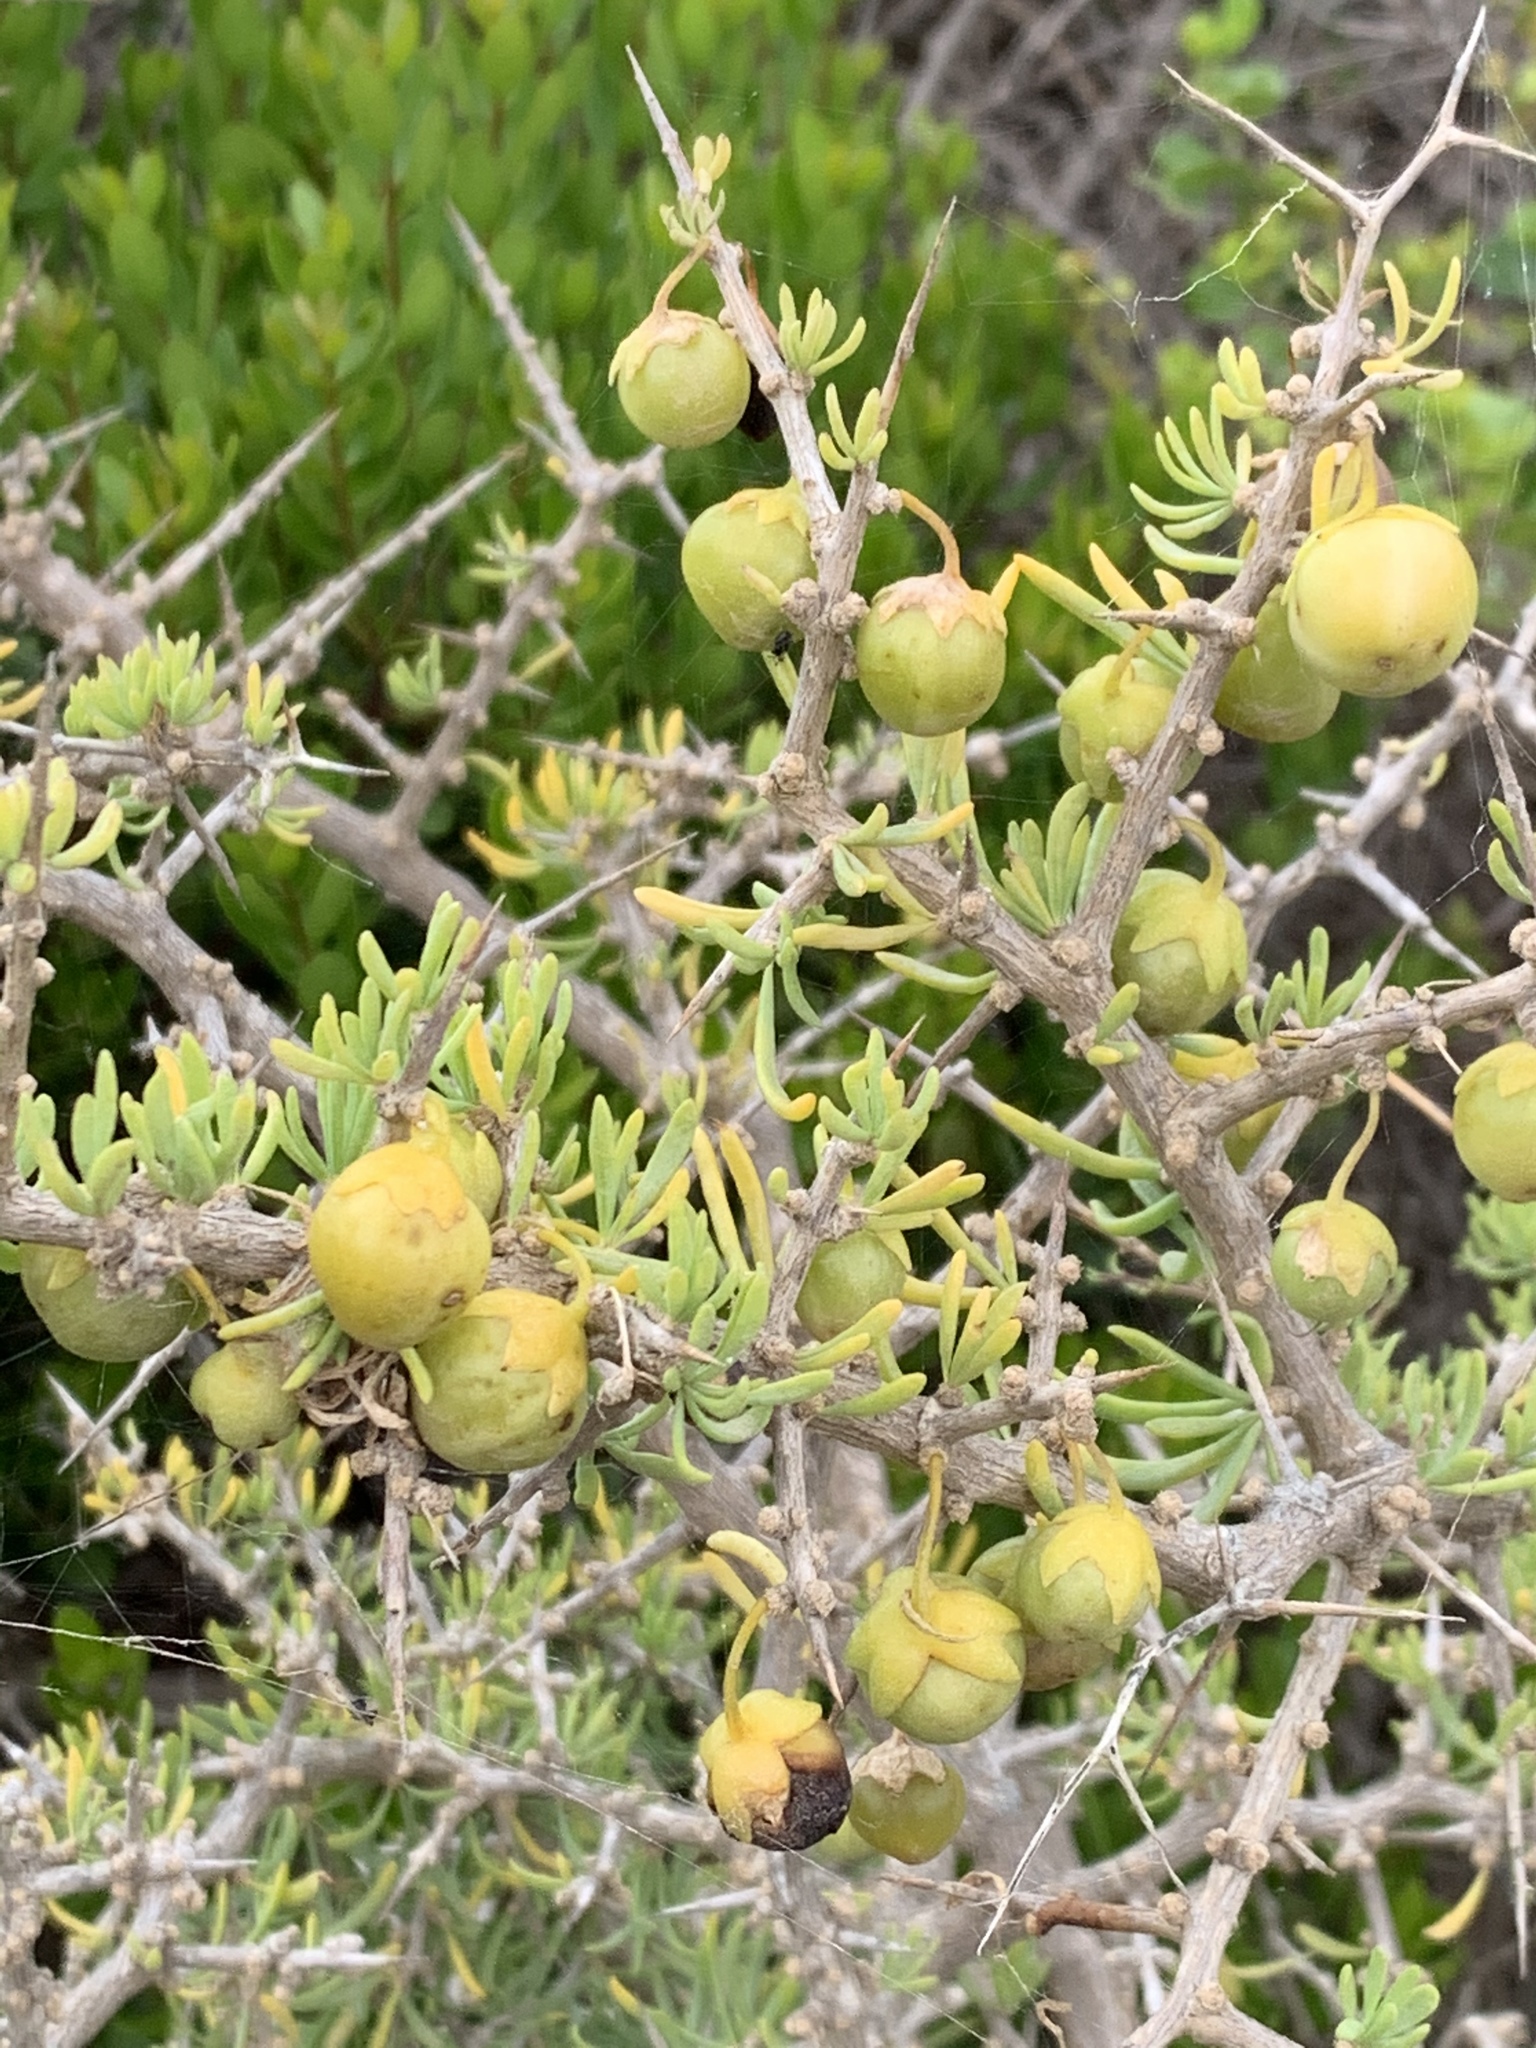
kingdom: Plantae
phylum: Tracheophyta
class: Magnoliopsida
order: Solanales
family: Solanaceae
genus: Lycium
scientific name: Lycium afrum
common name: Kaffir boxthorn
